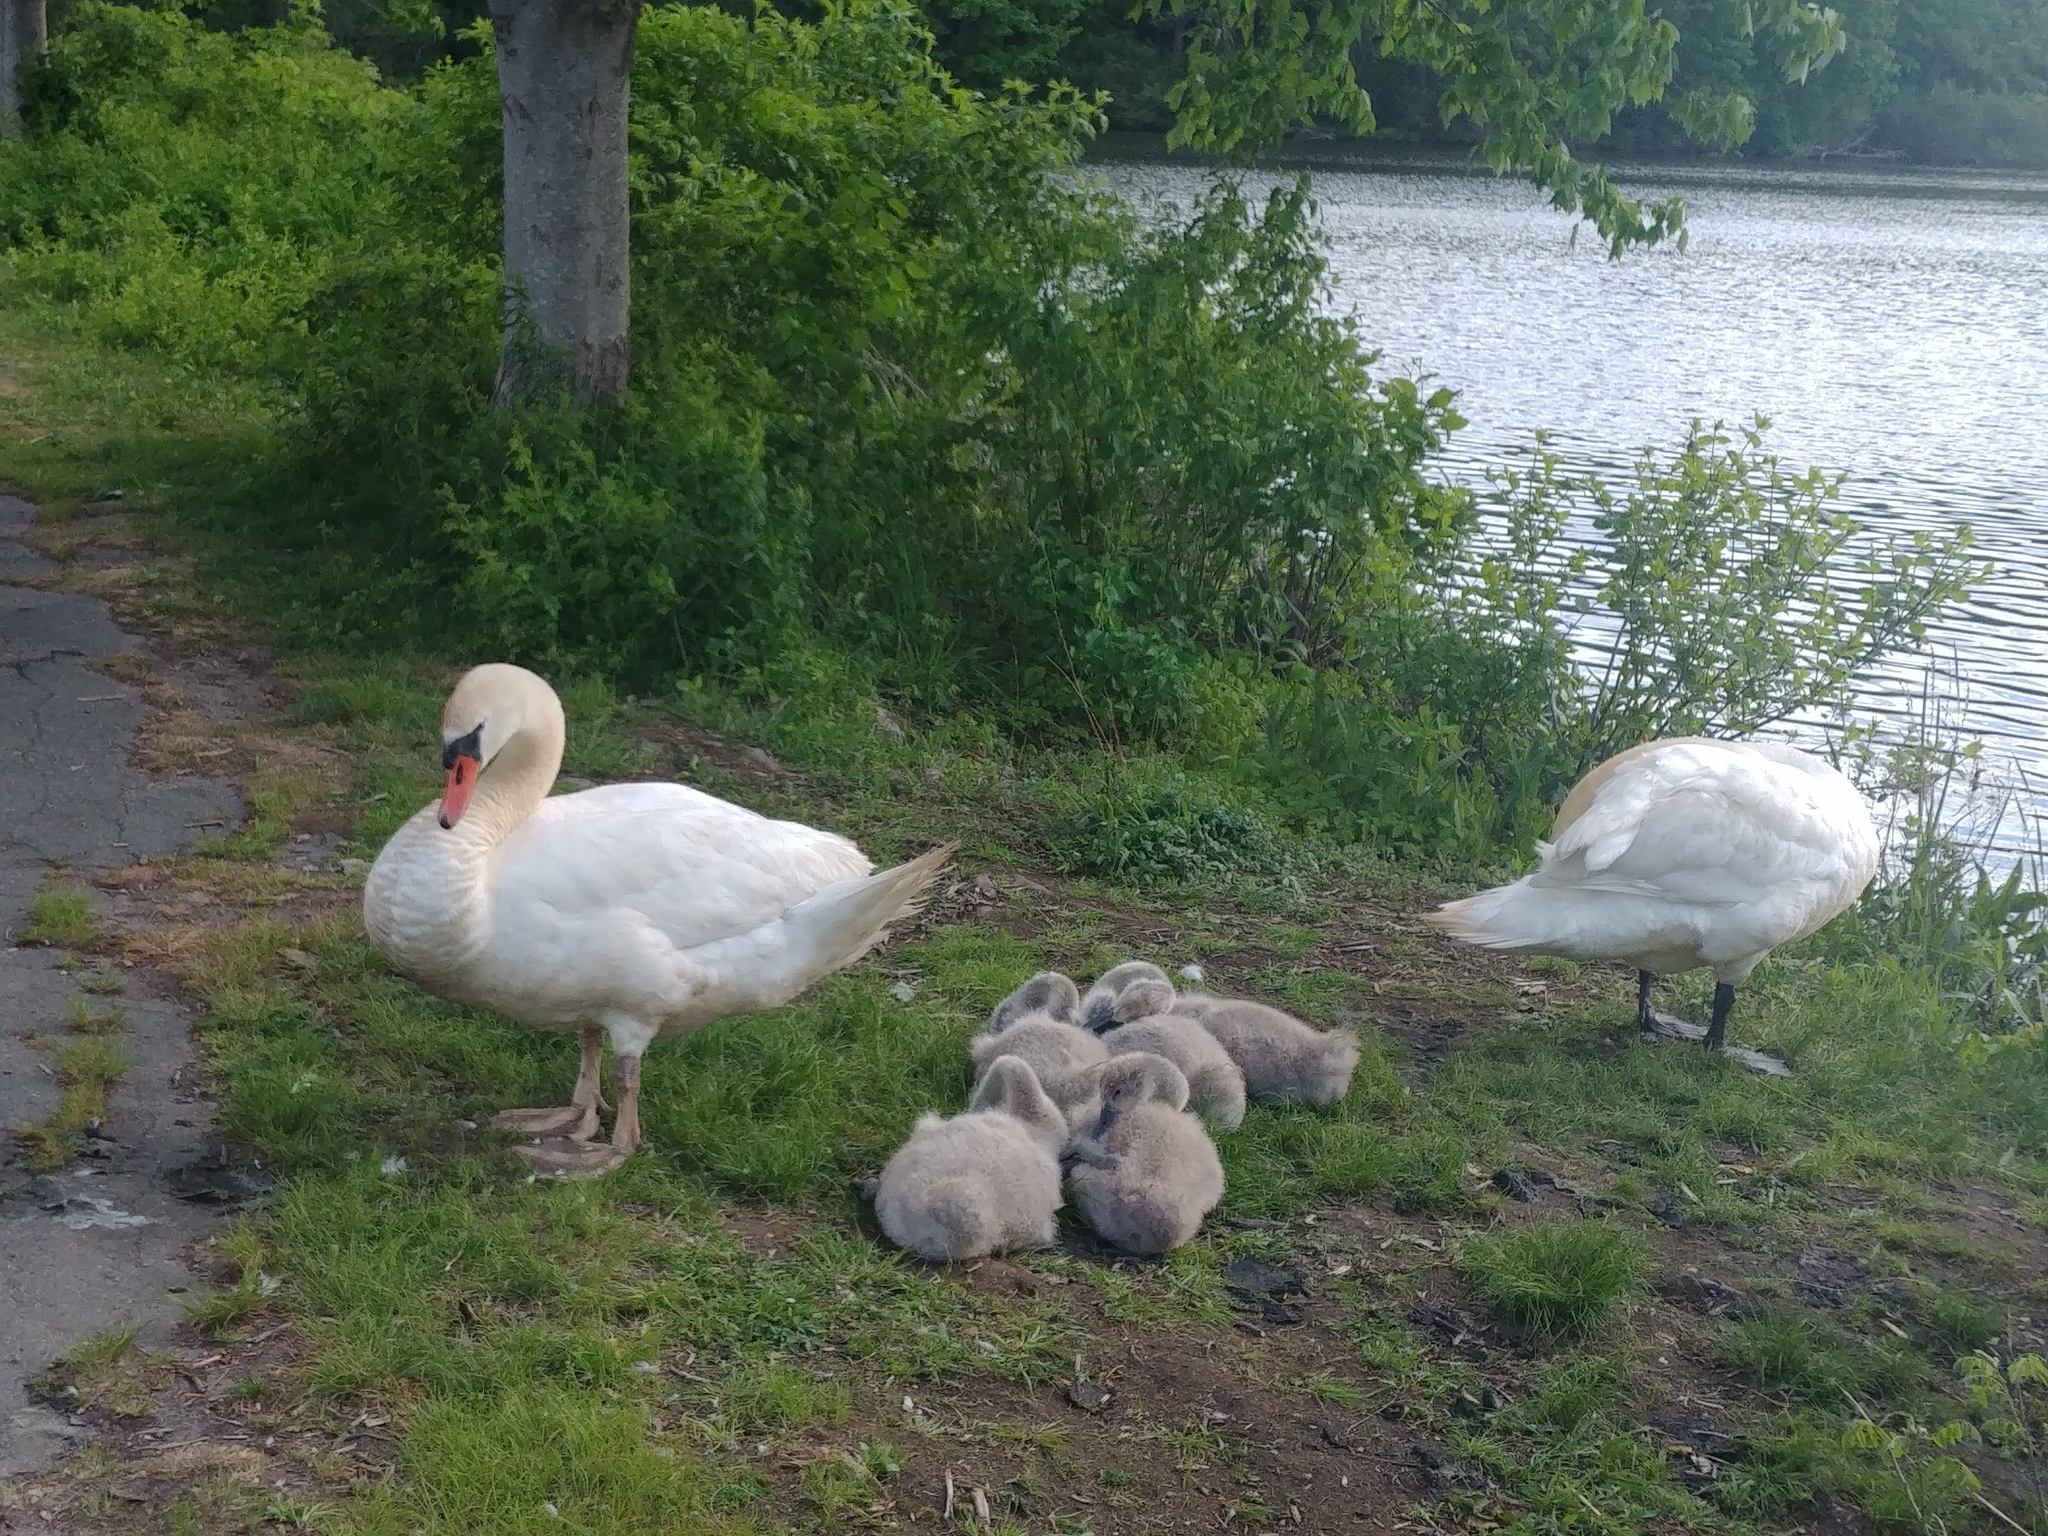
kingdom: Animalia
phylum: Chordata
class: Aves
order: Anseriformes
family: Anatidae
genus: Cygnus
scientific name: Cygnus olor
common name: Mute swan
